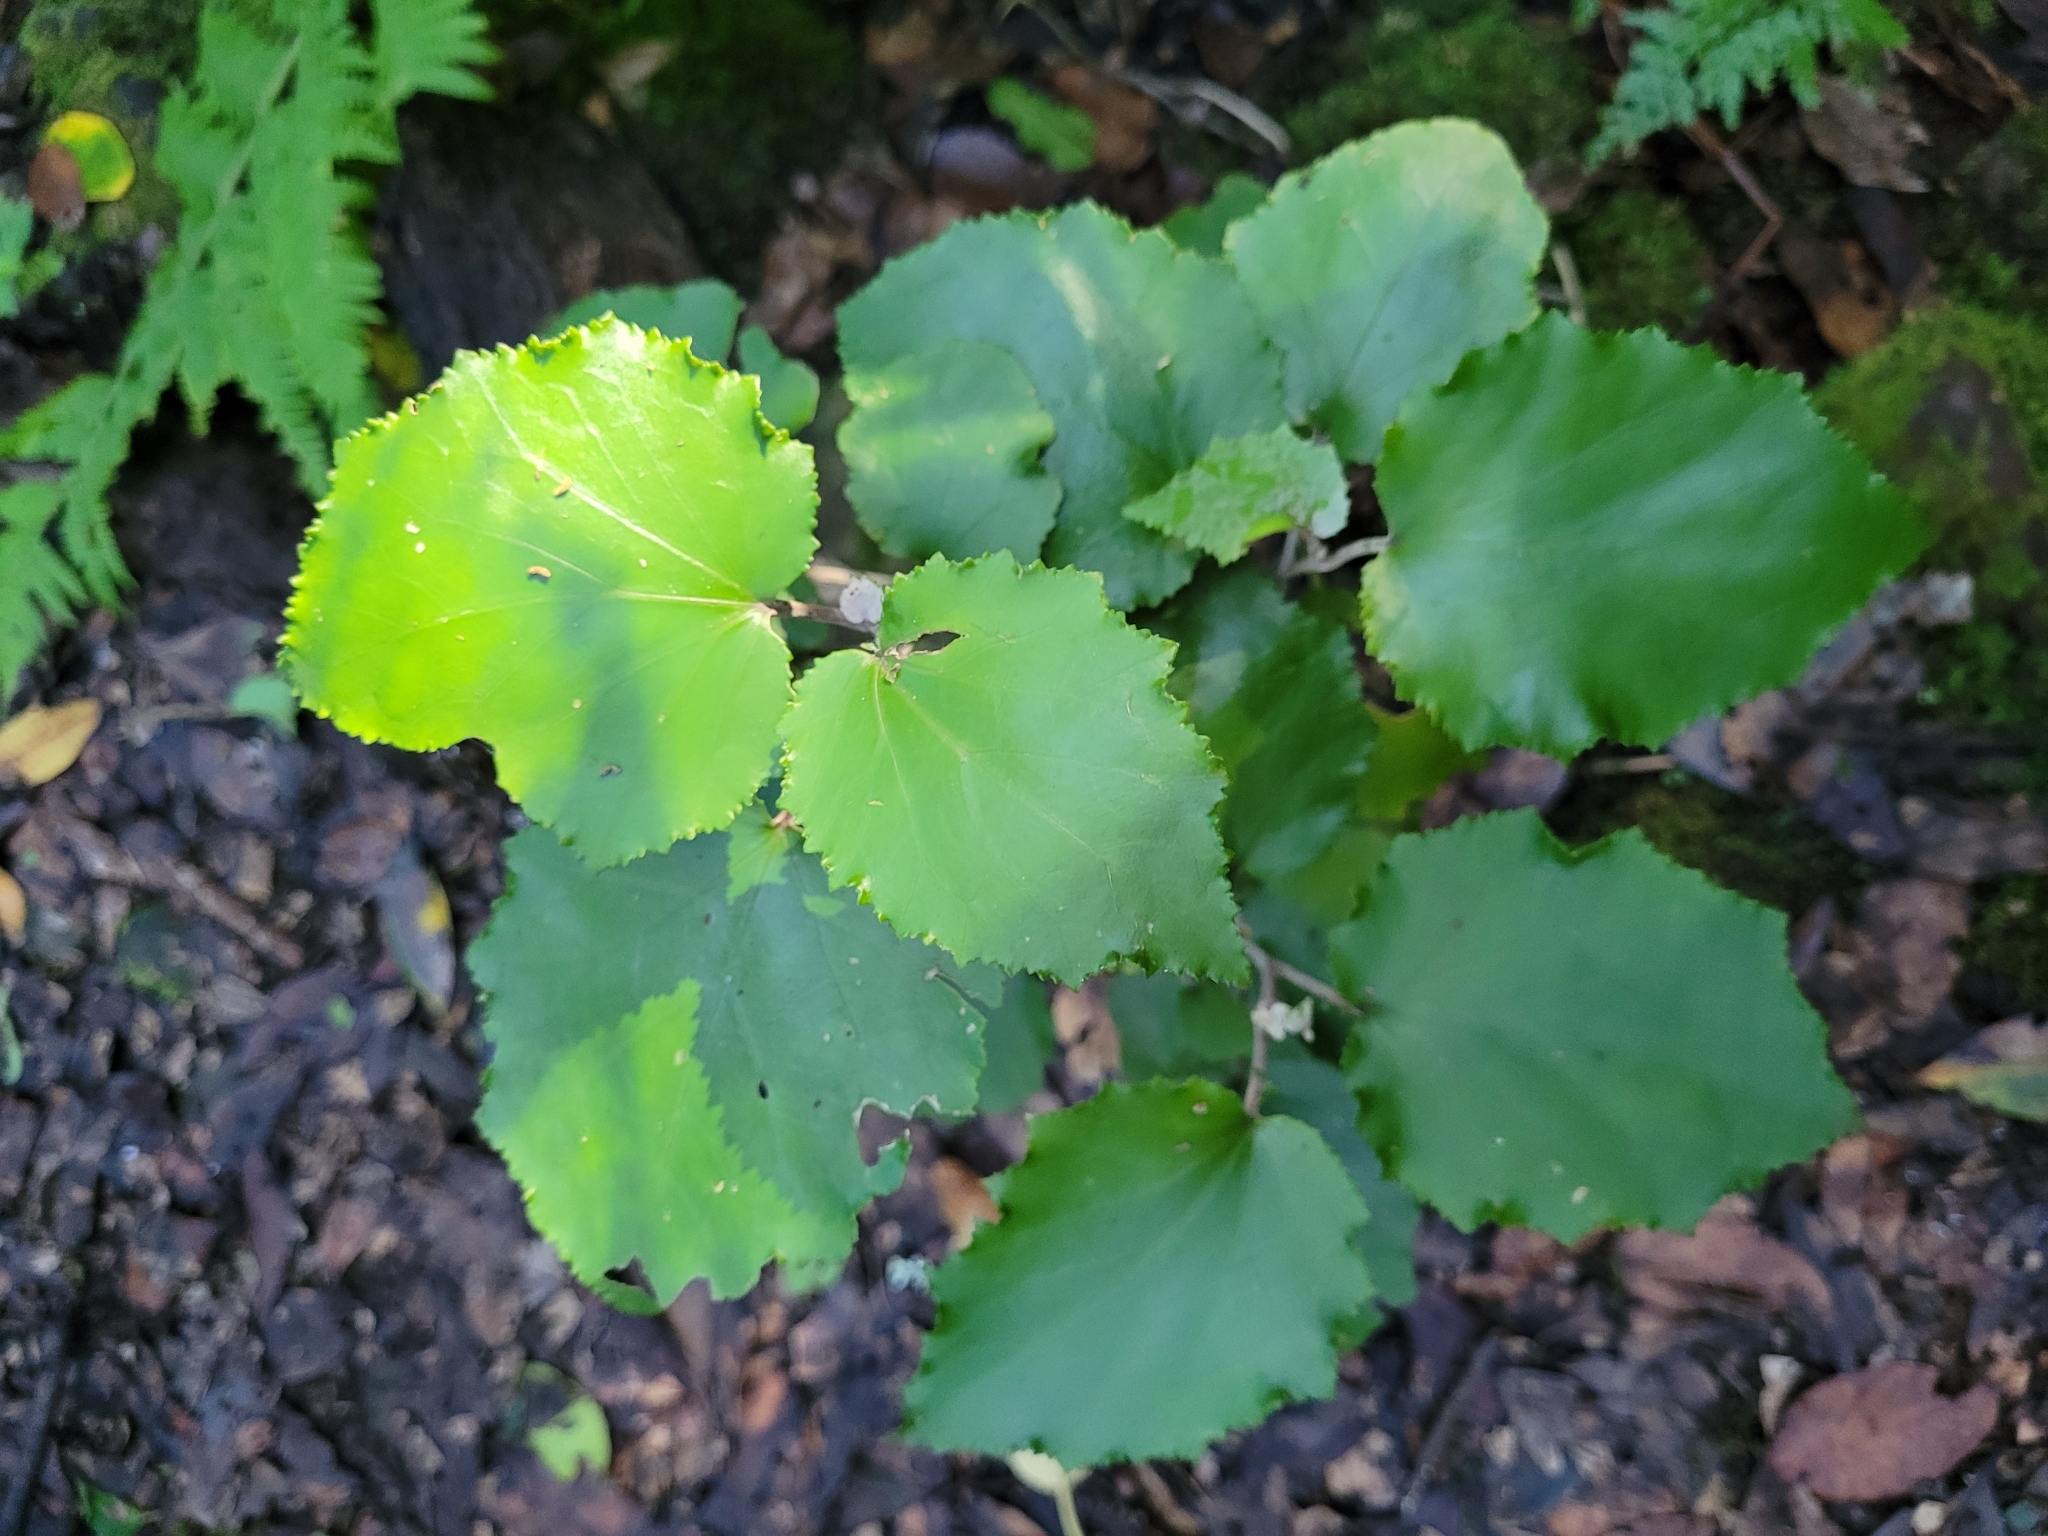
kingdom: Plantae
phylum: Tracheophyta
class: Magnoliopsida
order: Asterales
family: Asteraceae
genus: Pericallis
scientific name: Pericallis appendiculata
